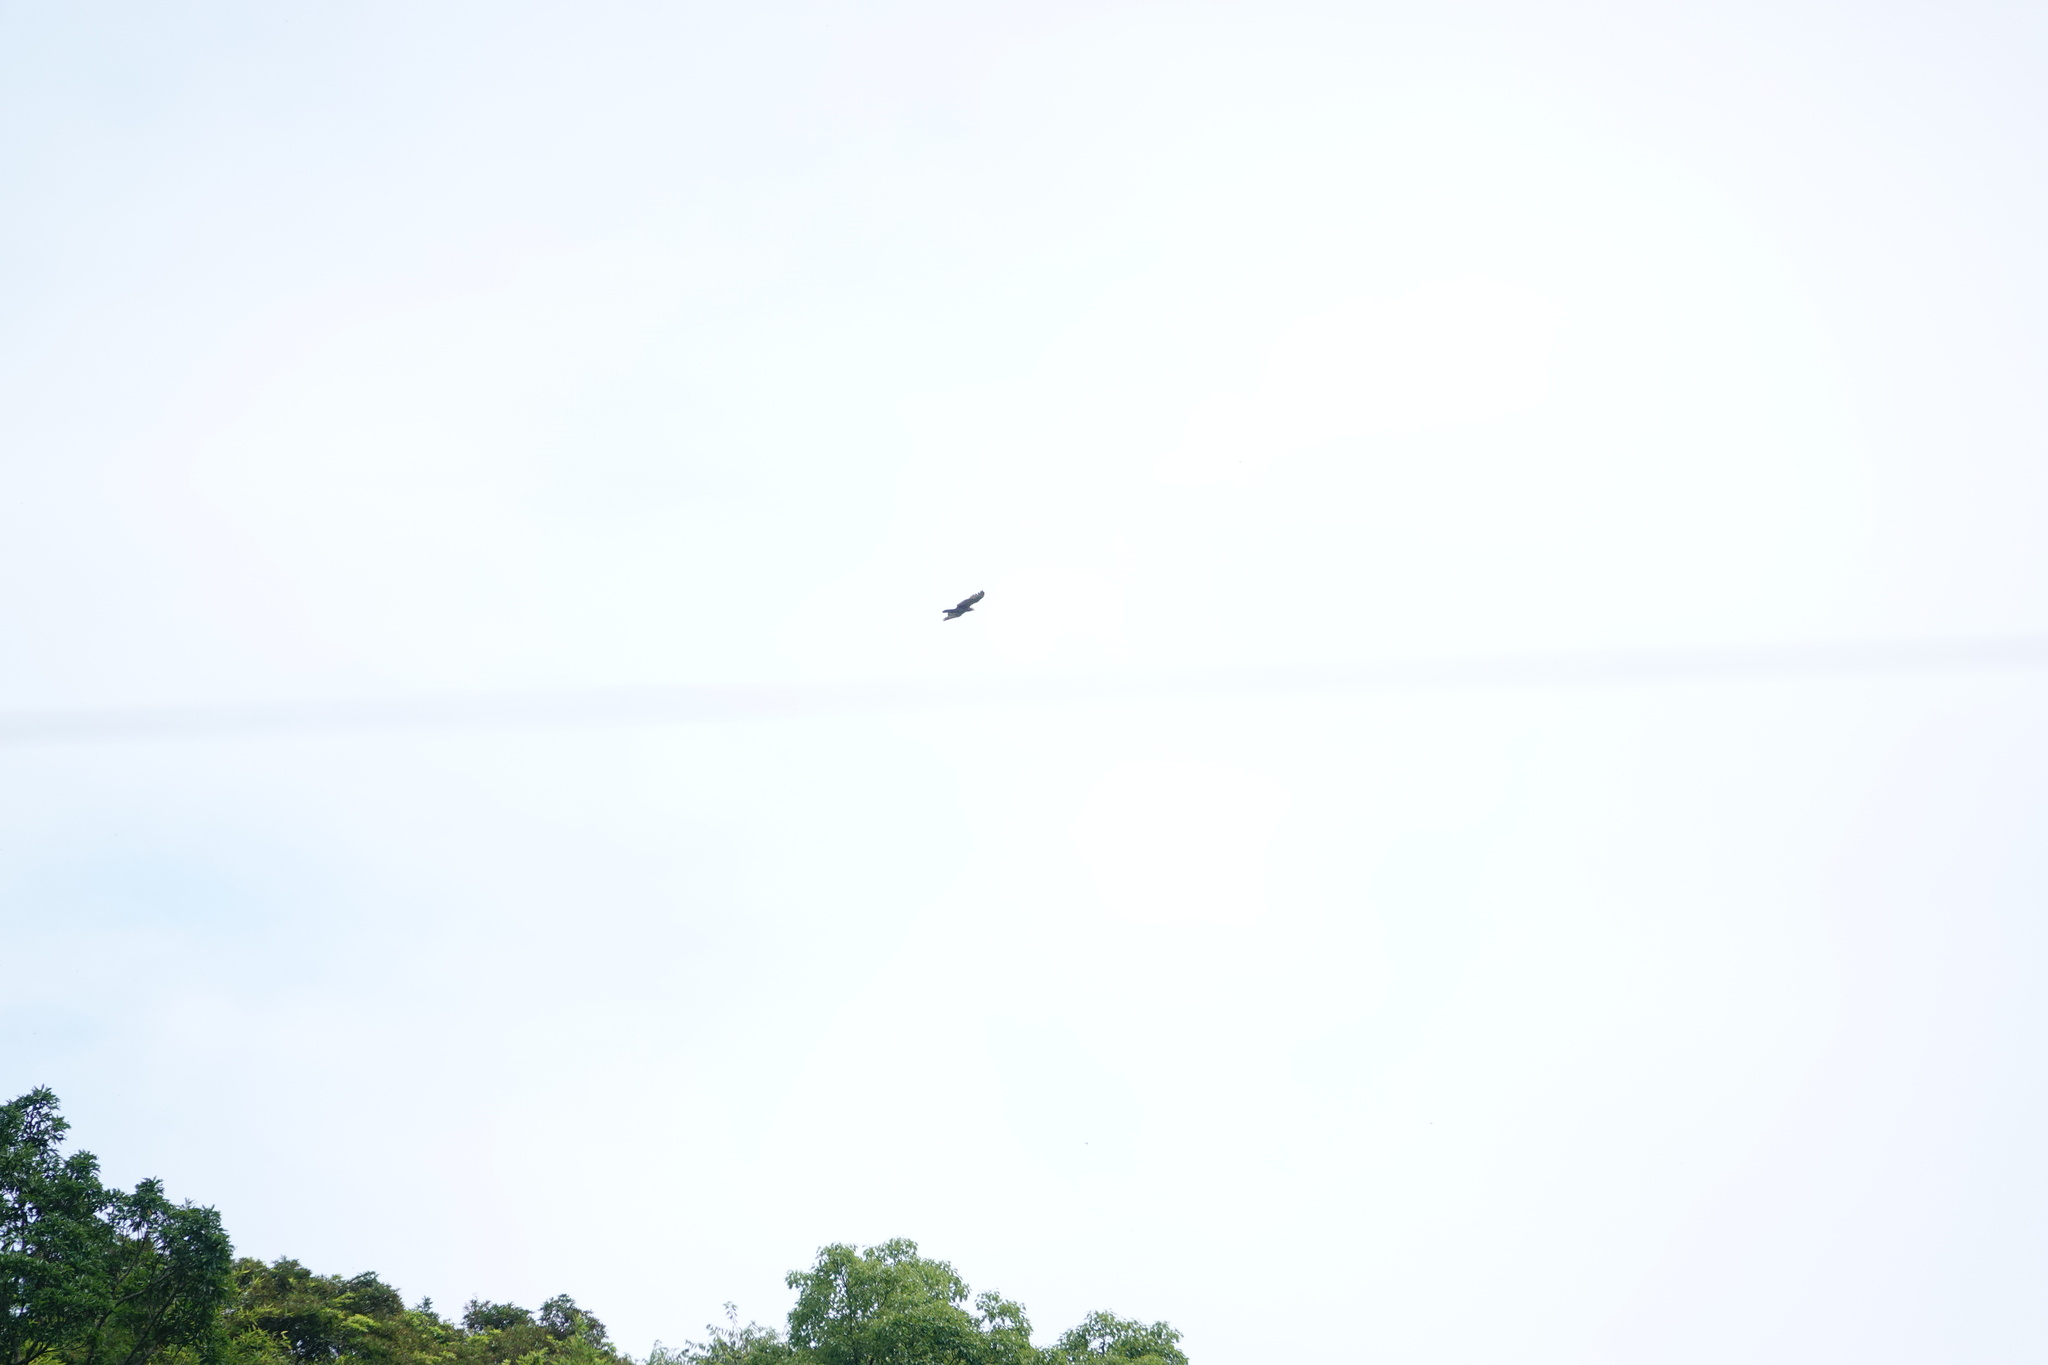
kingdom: Animalia
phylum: Chordata
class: Aves
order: Accipitriformes
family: Accipitridae
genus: Pernis
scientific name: Pernis ptilorhynchus
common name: Crested honey buzzard
